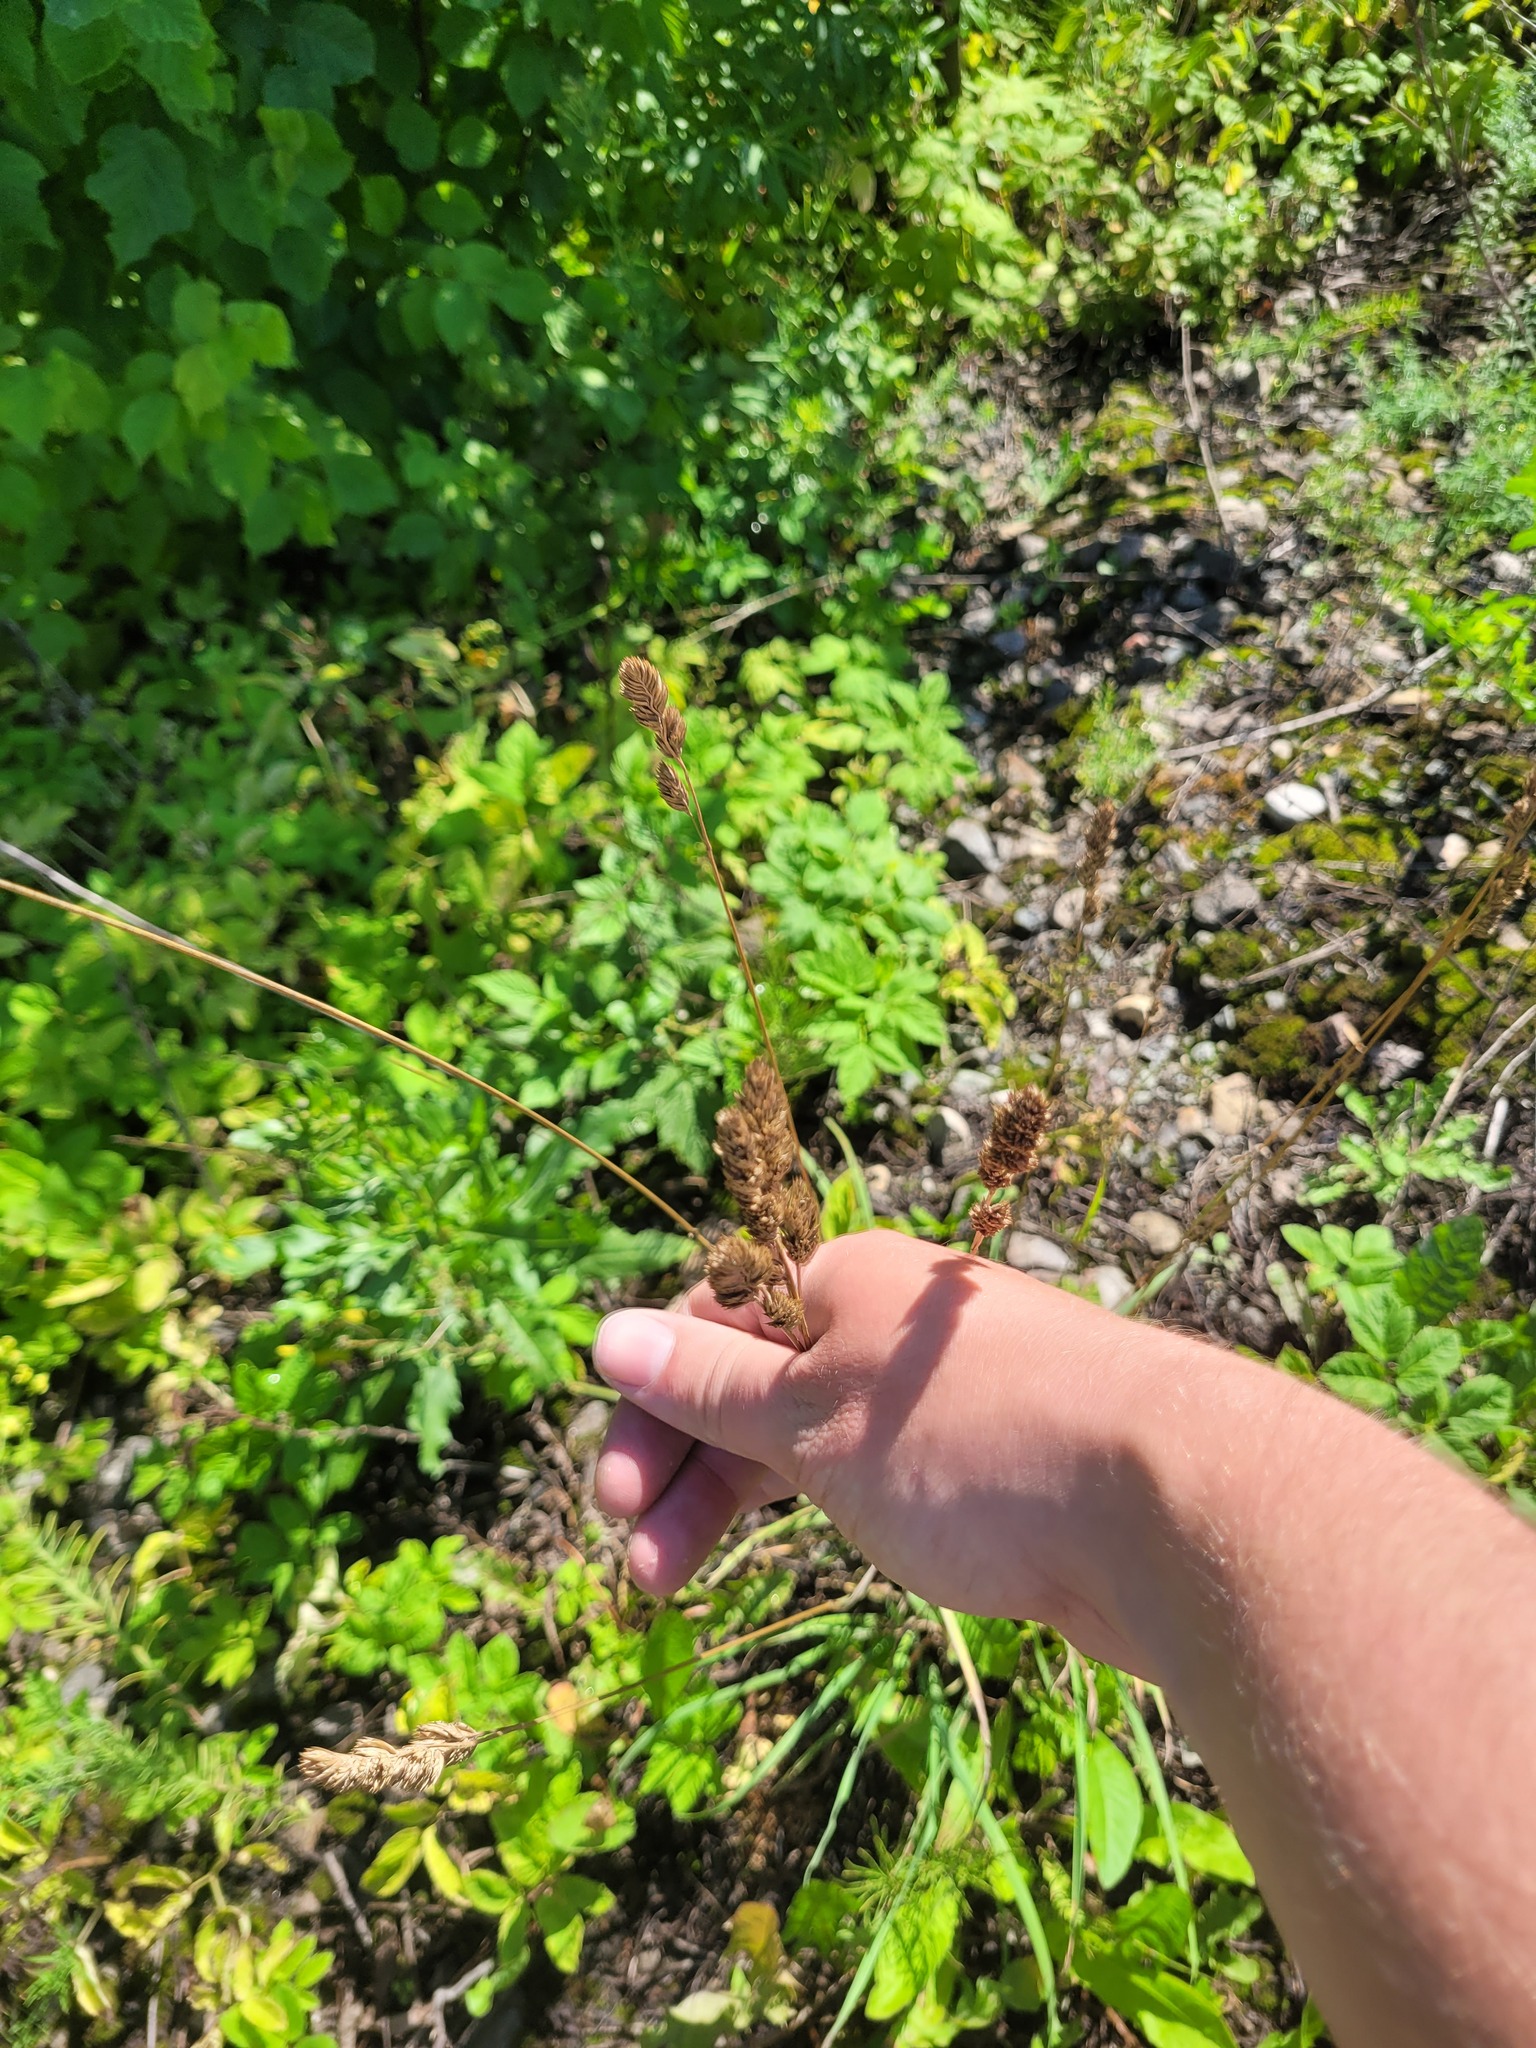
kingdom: Plantae
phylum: Tracheophyta
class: Liliopsida
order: Poales
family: Poaceae
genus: Dactylis
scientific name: Dactylis glomerata
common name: Orchardgrass
